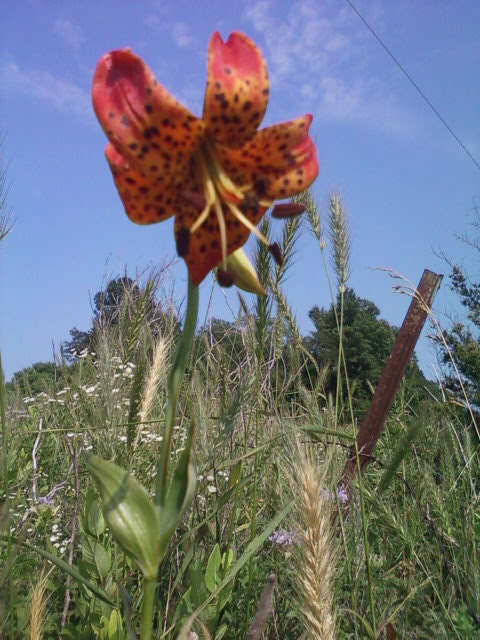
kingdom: Plantae
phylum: Tracheophyta
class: Liliopsida
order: Liliales
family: Liliaceae
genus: Lilium
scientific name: Lilium michiganense
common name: Michigan lily
